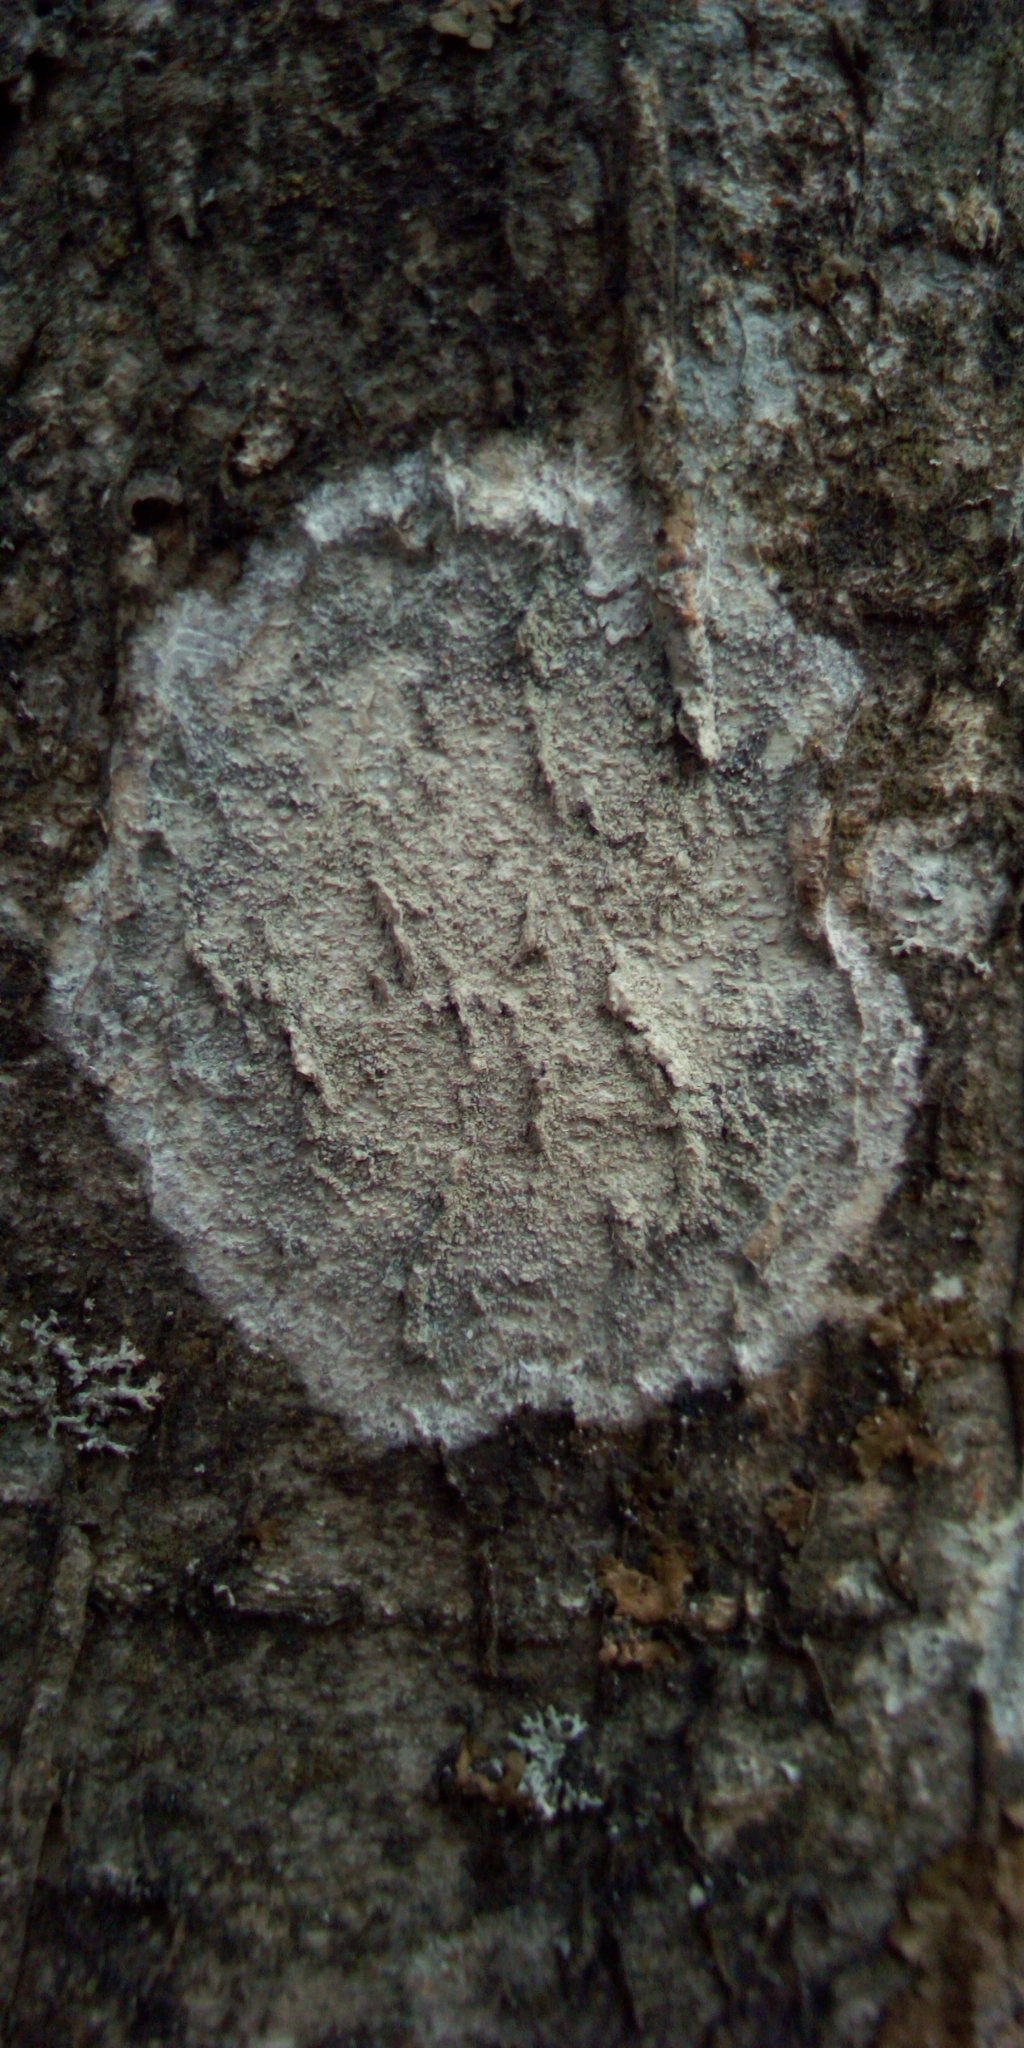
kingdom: Fungi
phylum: Ascomycota
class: Lecanoromycetes
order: Ostropales
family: Phlyctidaceae
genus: Phlyctis
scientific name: Phlyctis argena
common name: Whitewash lichen
